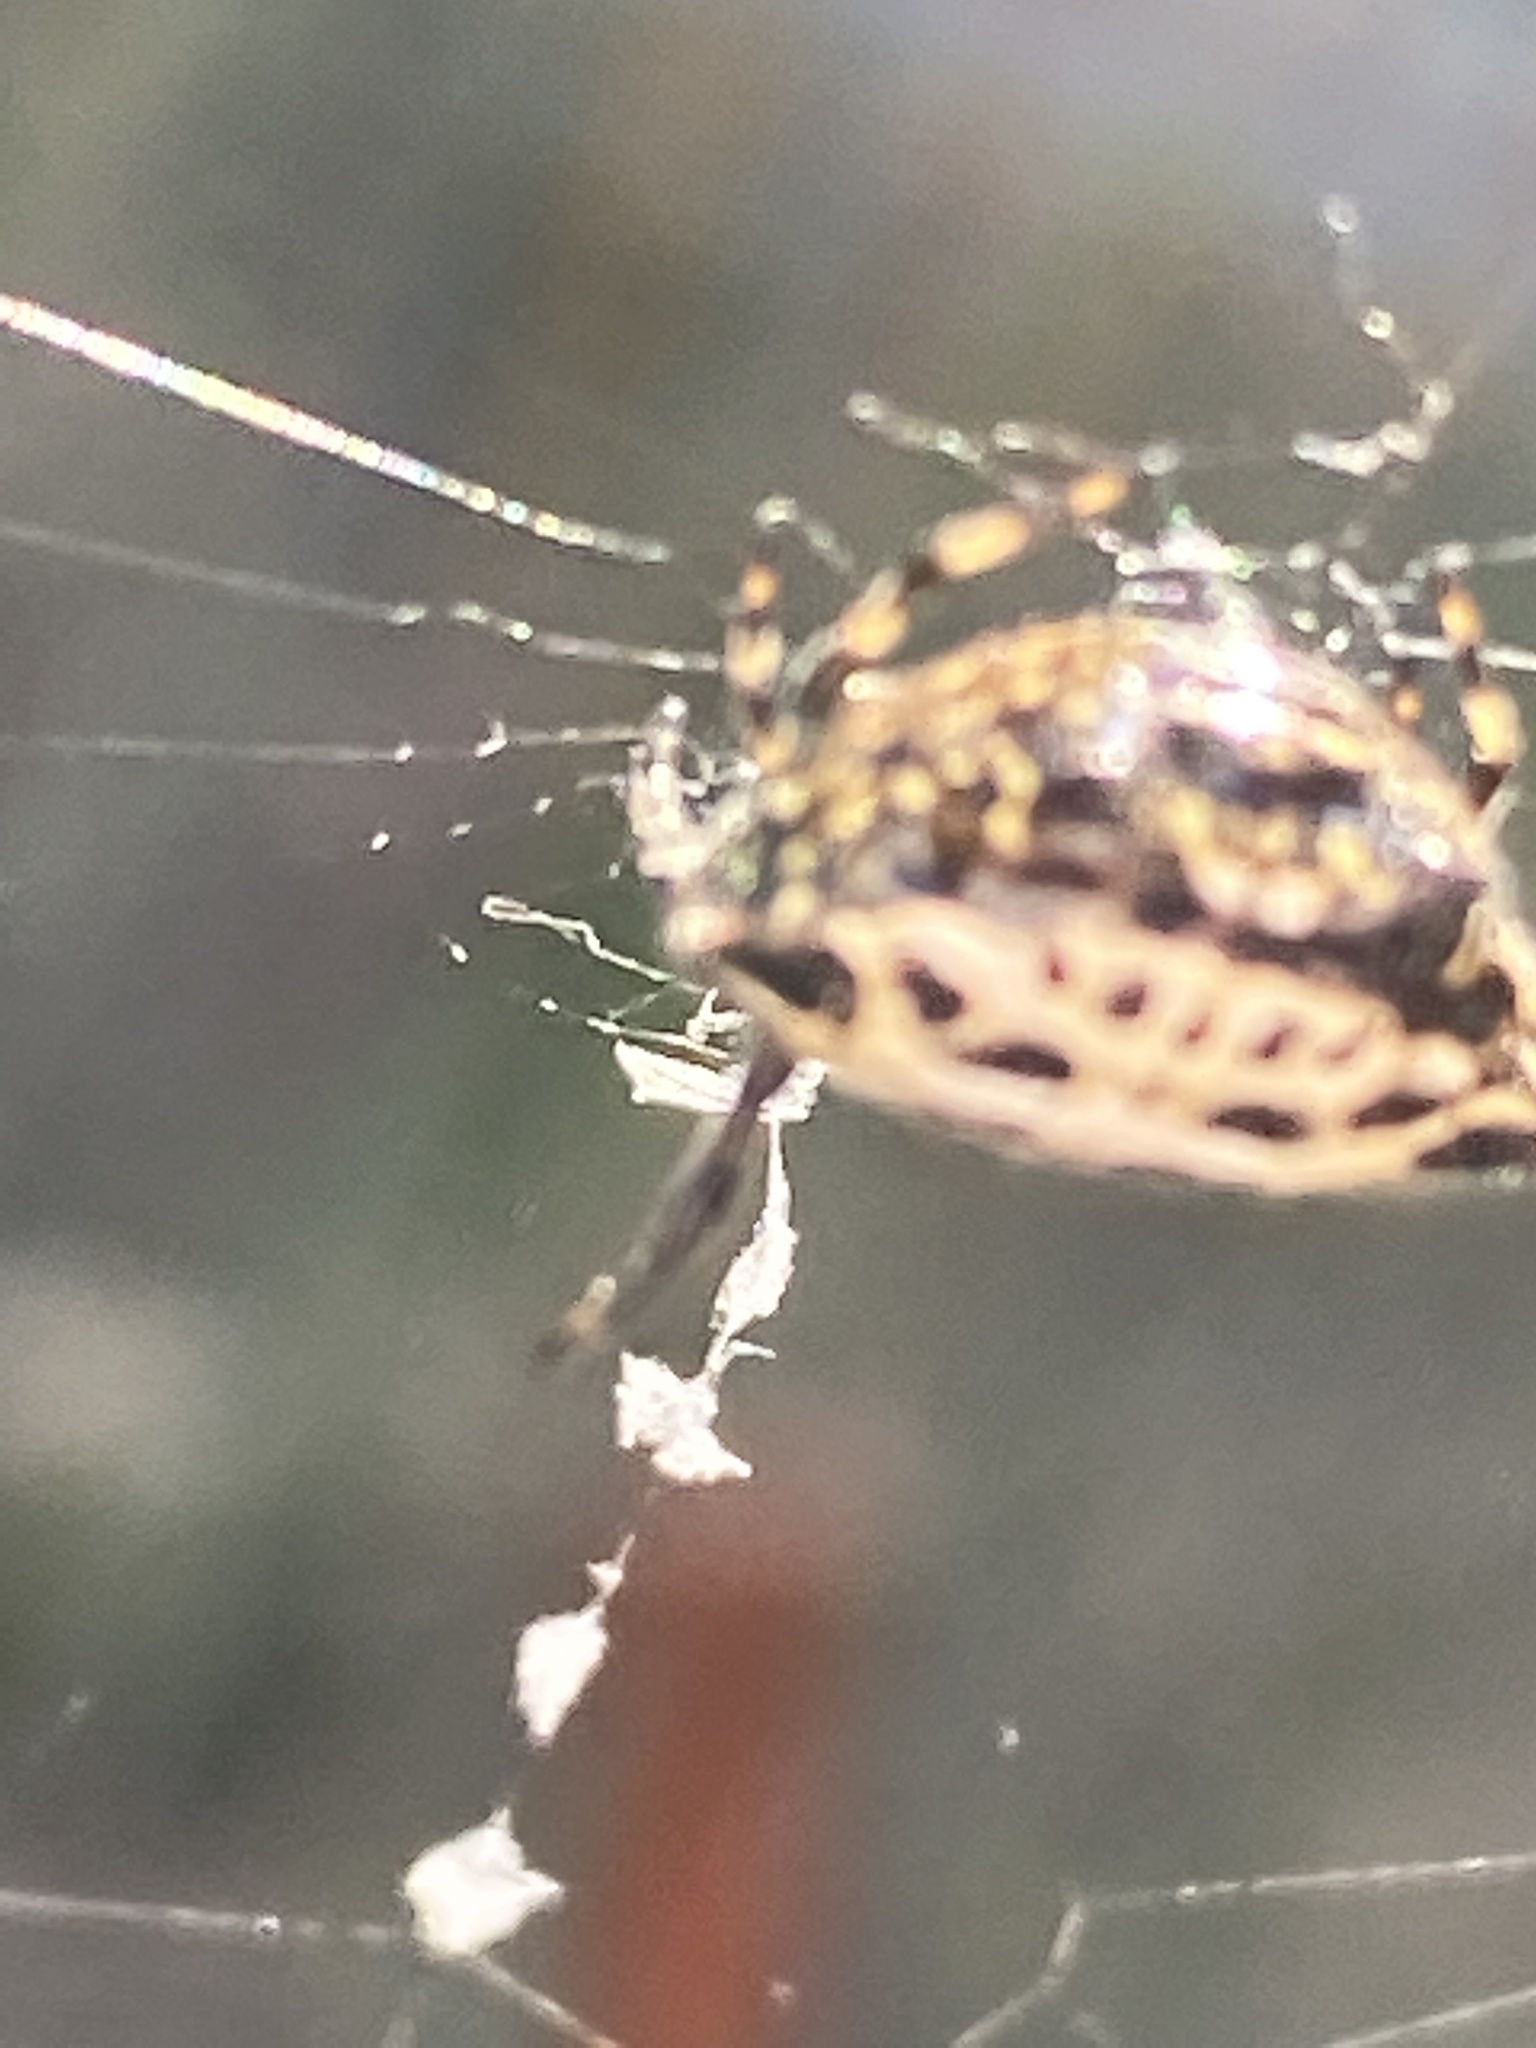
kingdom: Animalia
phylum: Arthropoda
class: Arachnida
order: Araneae
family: Araneidae
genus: Gasteracantha
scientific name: Gasteracantha cancriformis
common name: Orb weavers
